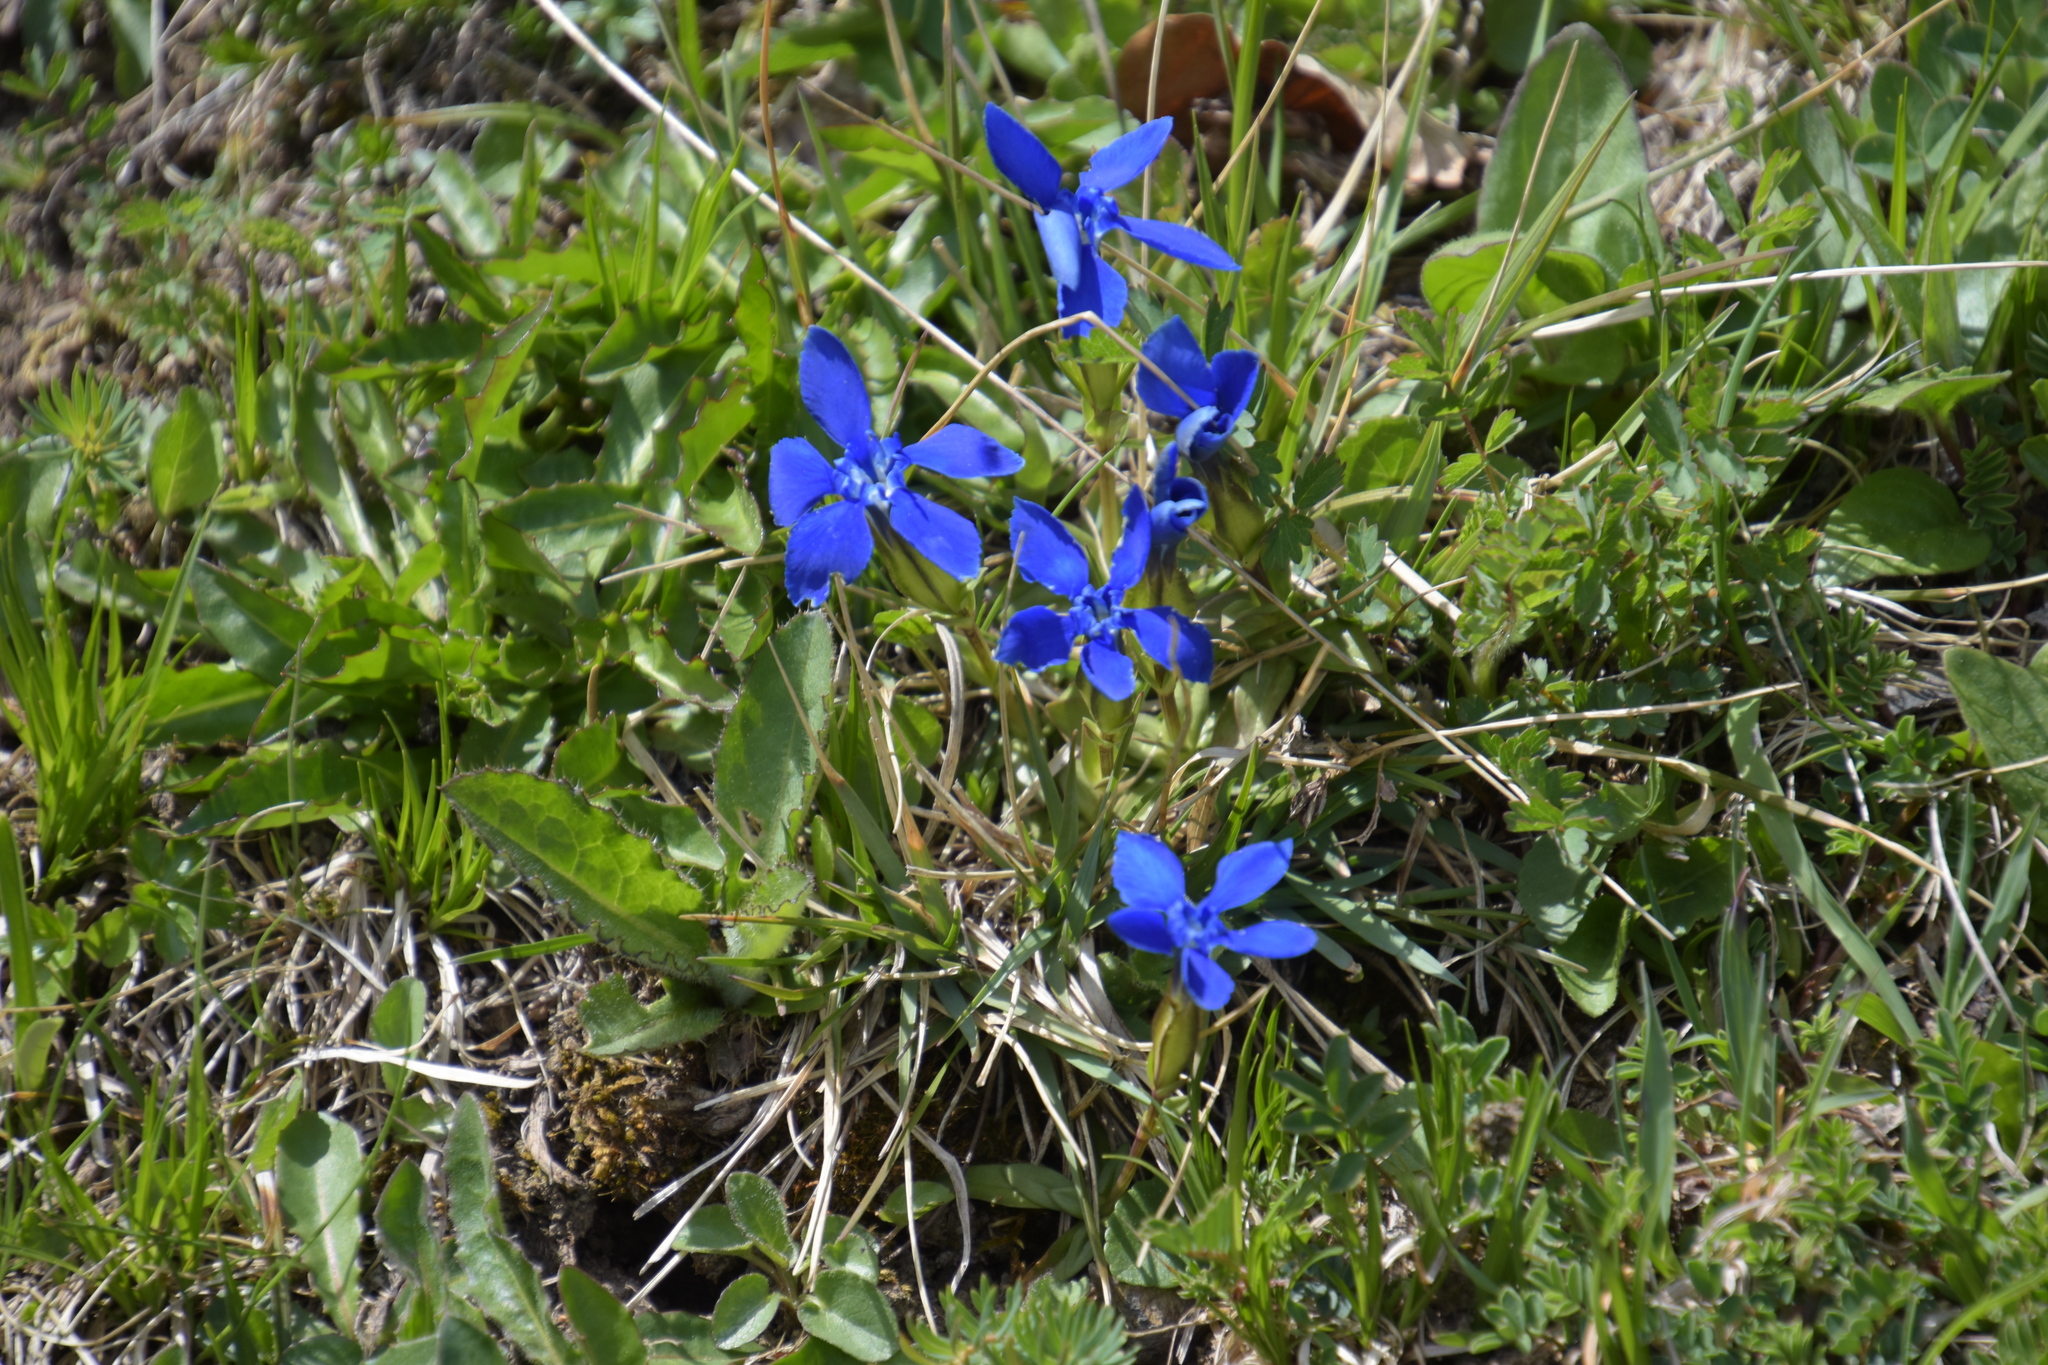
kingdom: Plantae
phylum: Tracheophyta
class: Magnoliopsida
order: Gentianales
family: Gentianaceae
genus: Gentiana
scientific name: Gentiana verna
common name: Spring gentian
